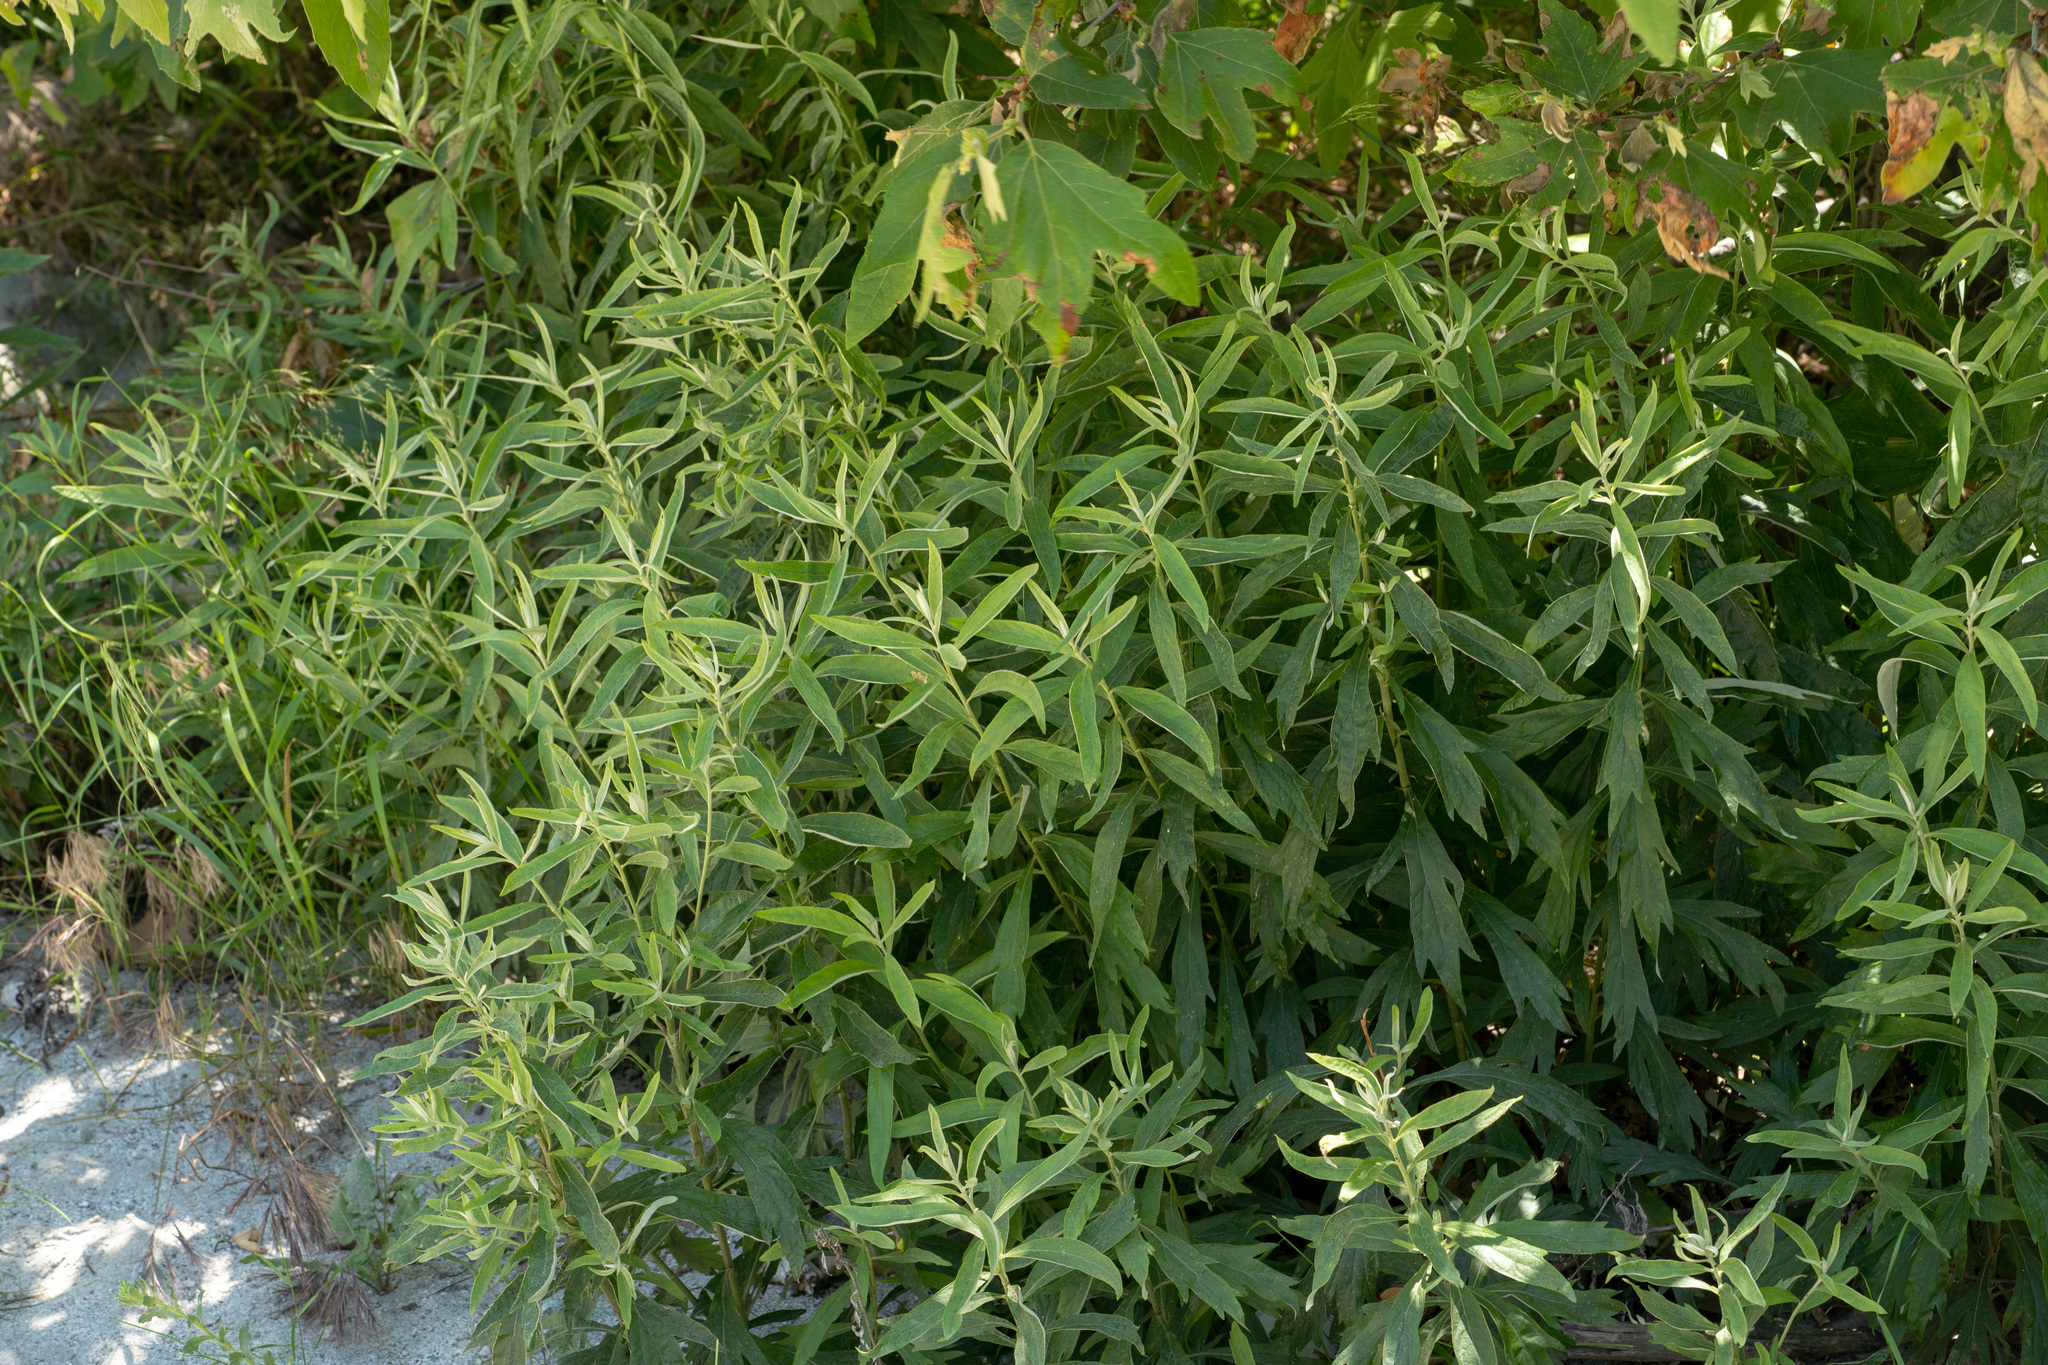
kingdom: Plantae
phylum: Tracheophyta
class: Magnoliopsida
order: Asterales
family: Asteraceae
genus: Artemisia
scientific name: Artemisia douglasiana
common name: Northwest mugwort
